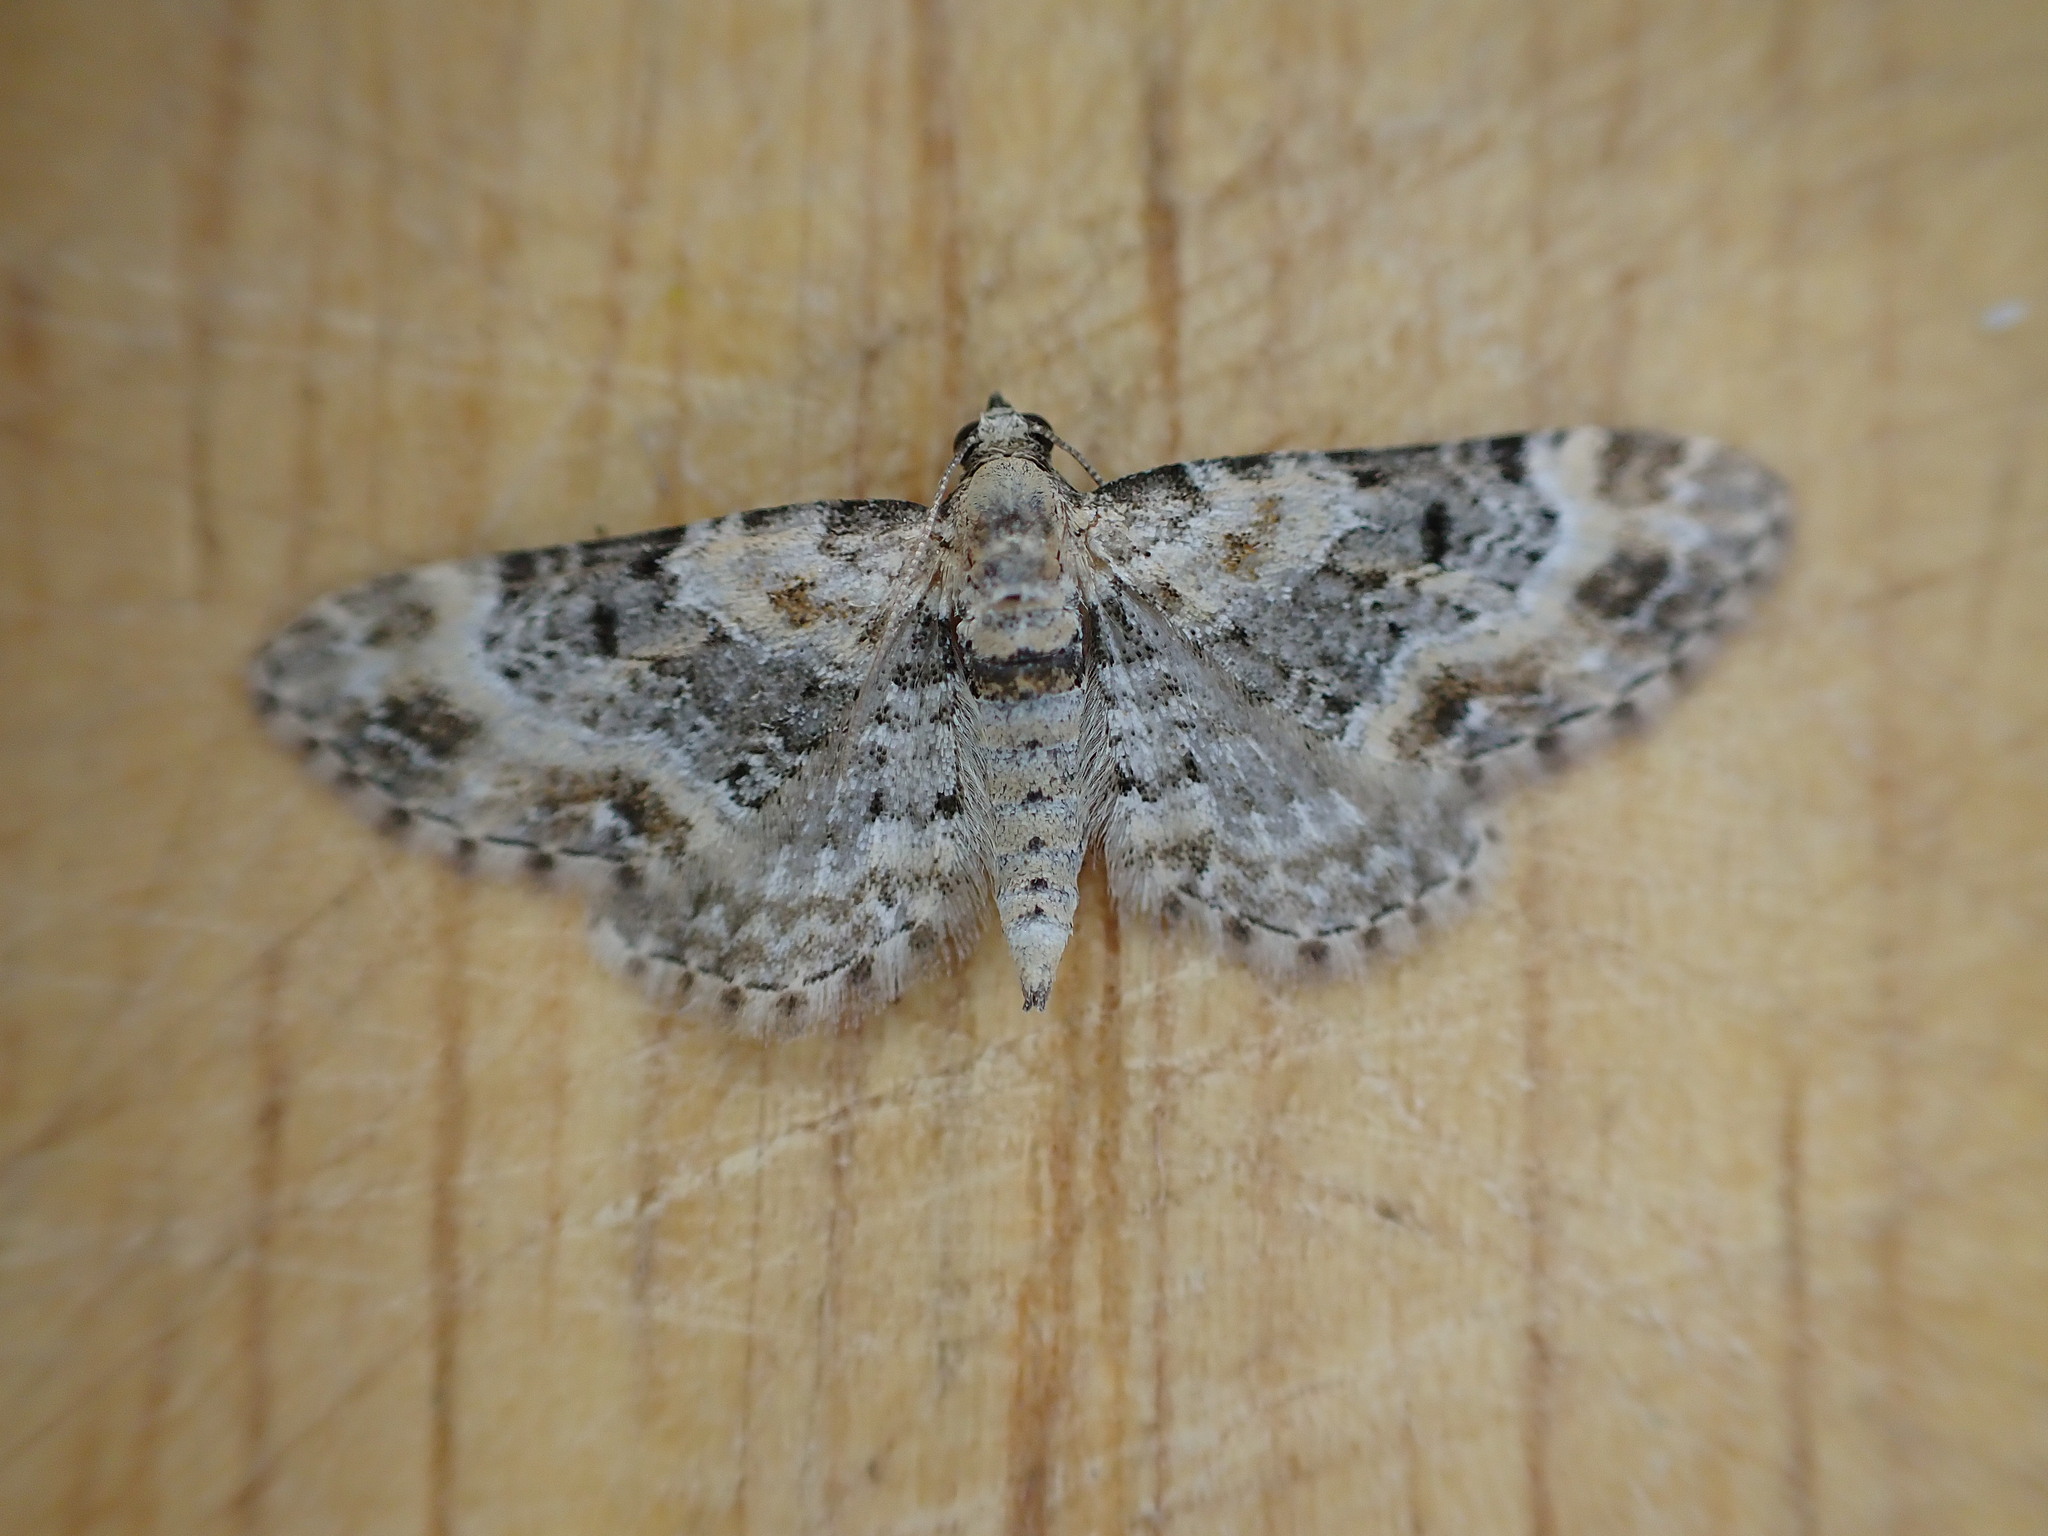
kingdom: Animalia
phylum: Arthropoda
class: Insecta
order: Lepidoptera
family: Geometridae
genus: Eupithecia
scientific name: Eupithecia pulchellata
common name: Foxglove pug
